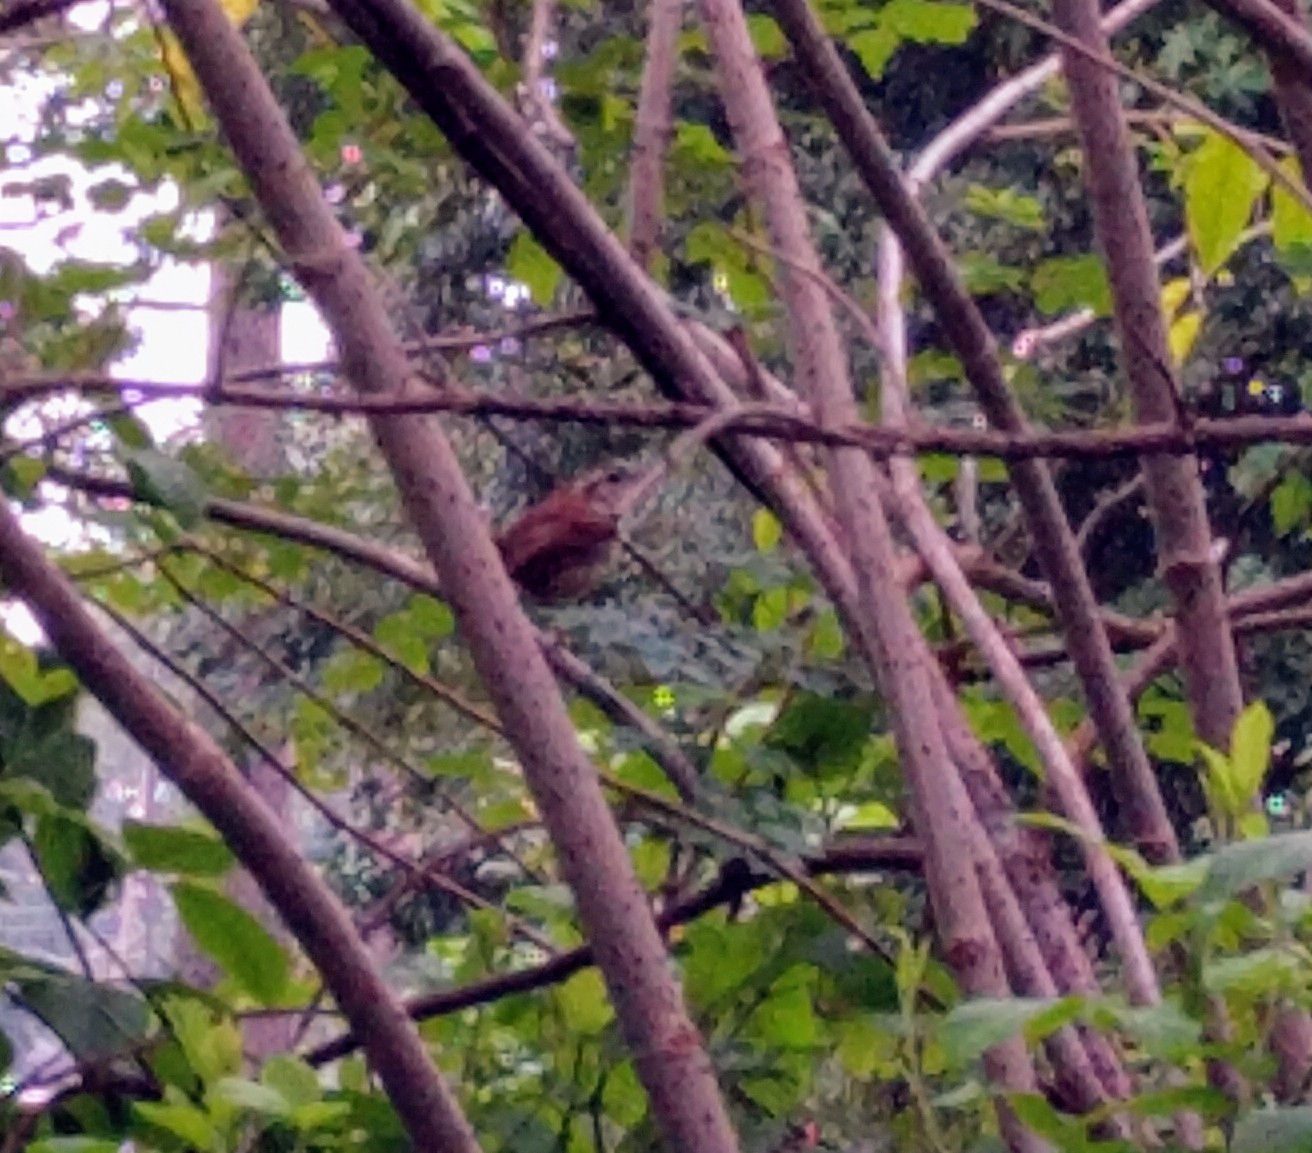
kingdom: Animalia
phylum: Chordata
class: Aves
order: Passeriformes
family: Troglodytidae
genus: Thryothorus
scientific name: Thryothorus ludovicianus
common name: Carolina wren
